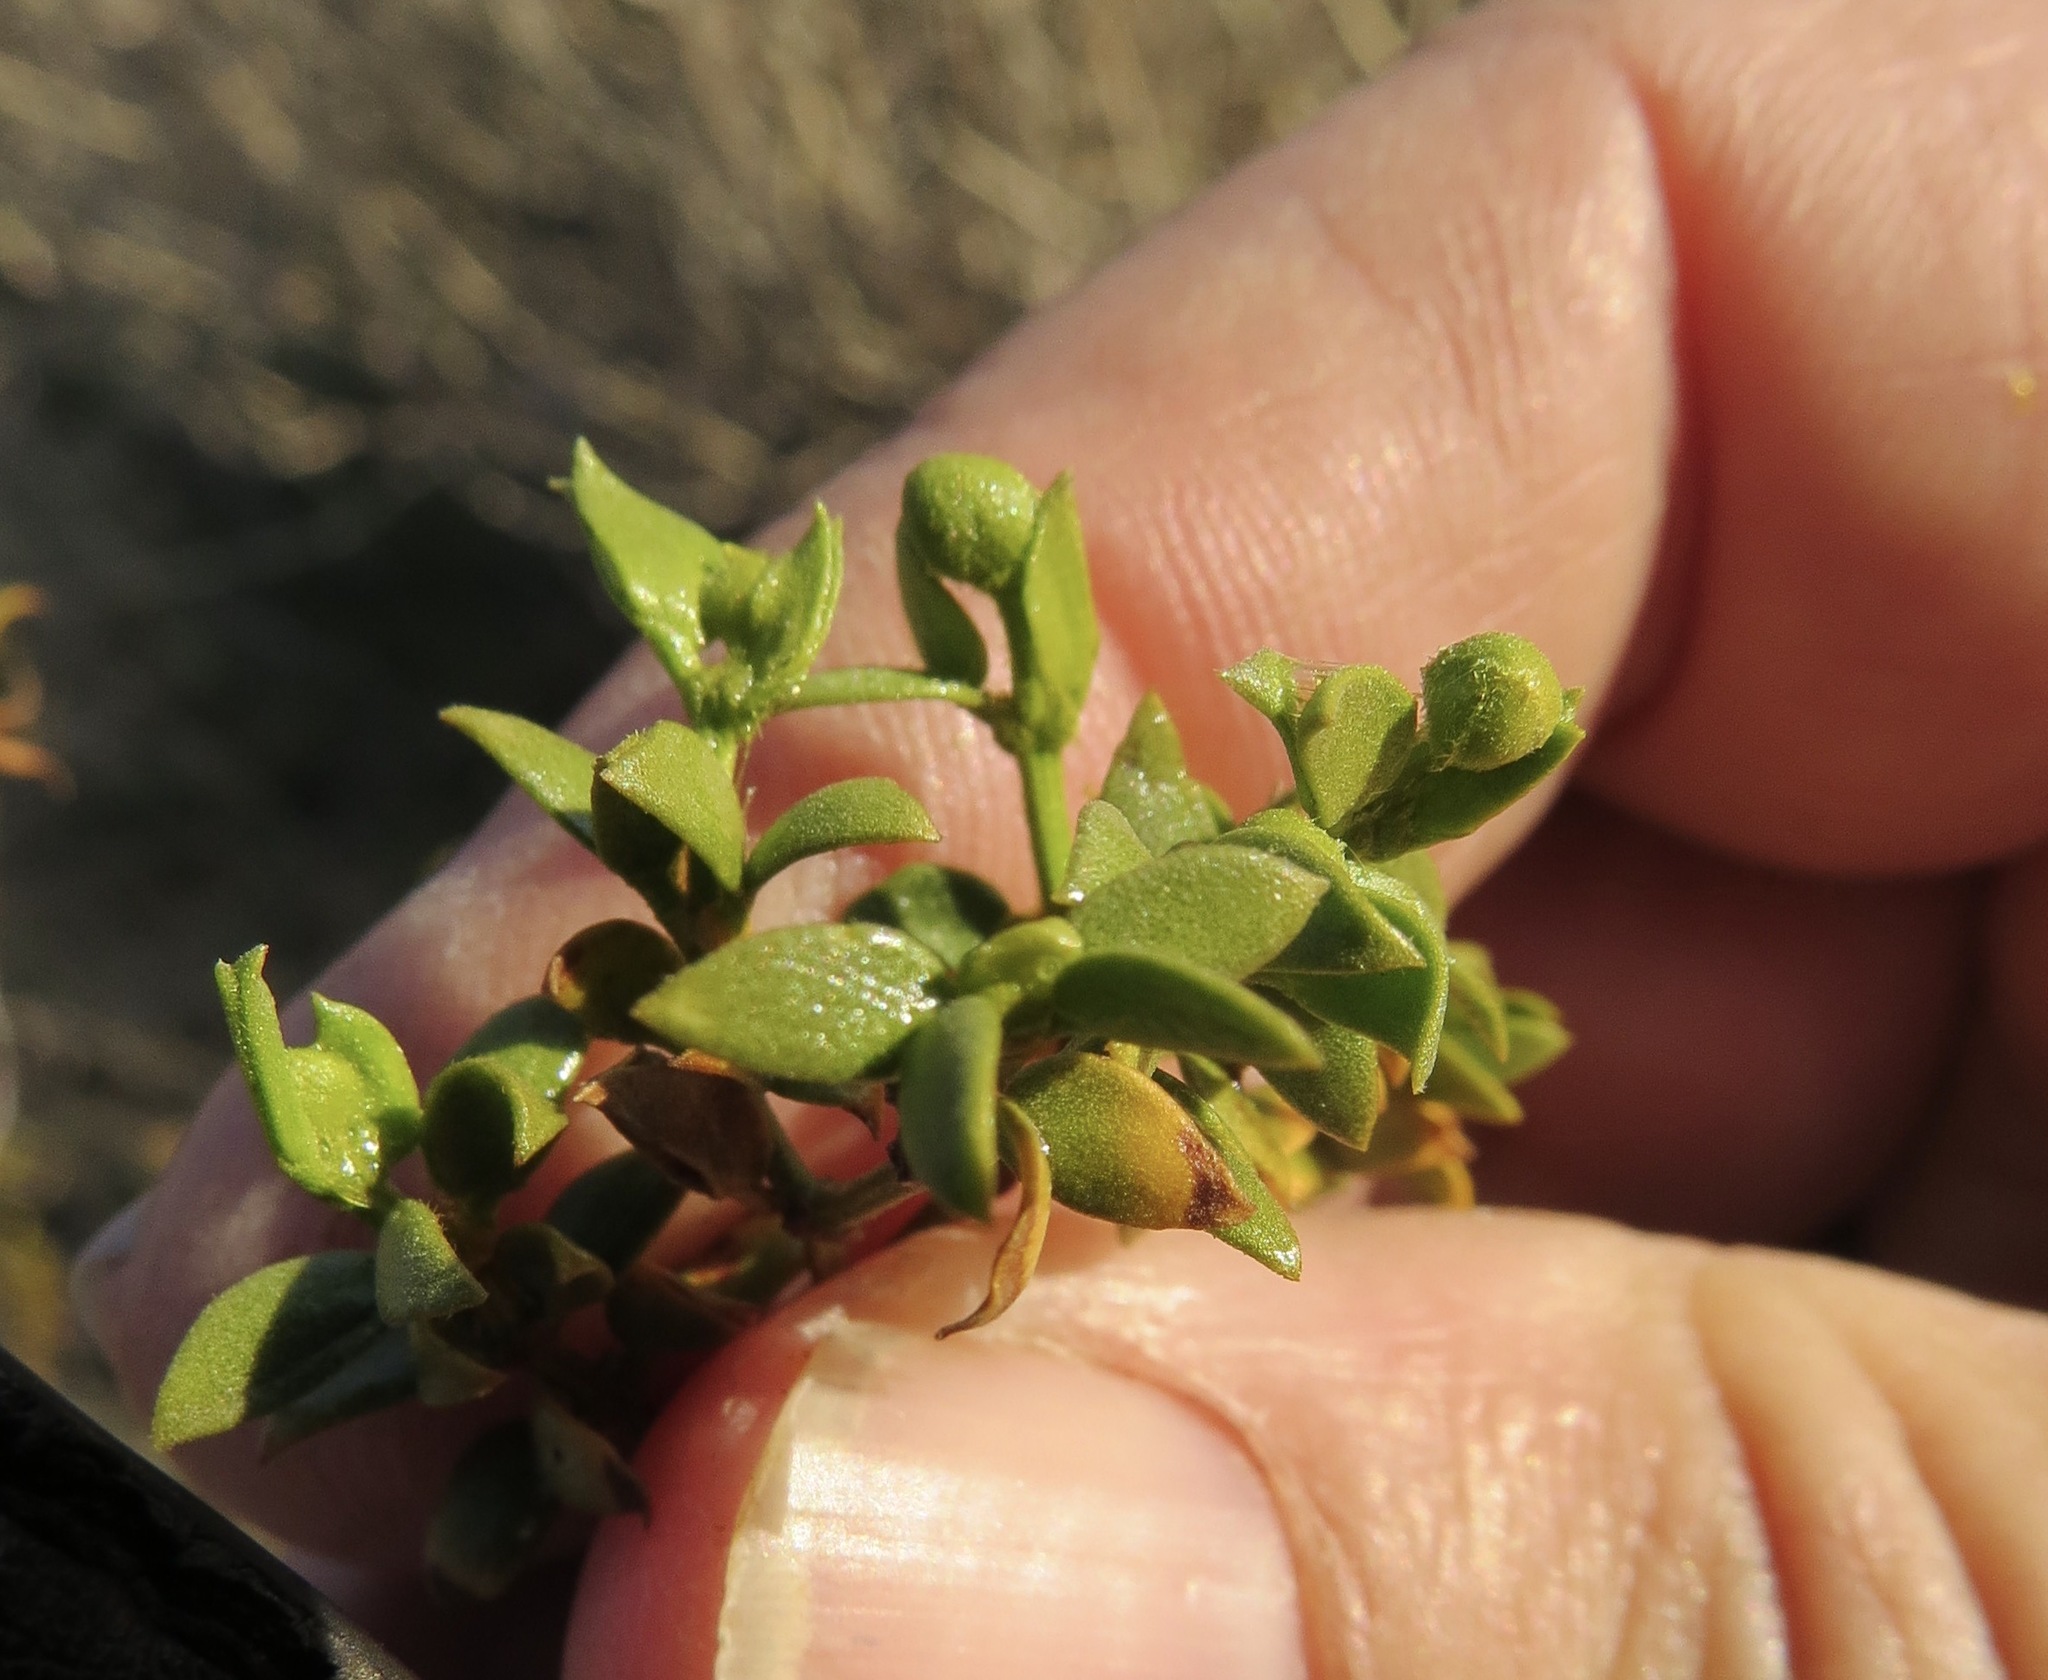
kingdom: Plantae
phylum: Tracheophyta
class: Magnoliopsida
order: Zygophyllales
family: Zygophyllaceae
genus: Larrea
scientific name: Larrea tridentata
